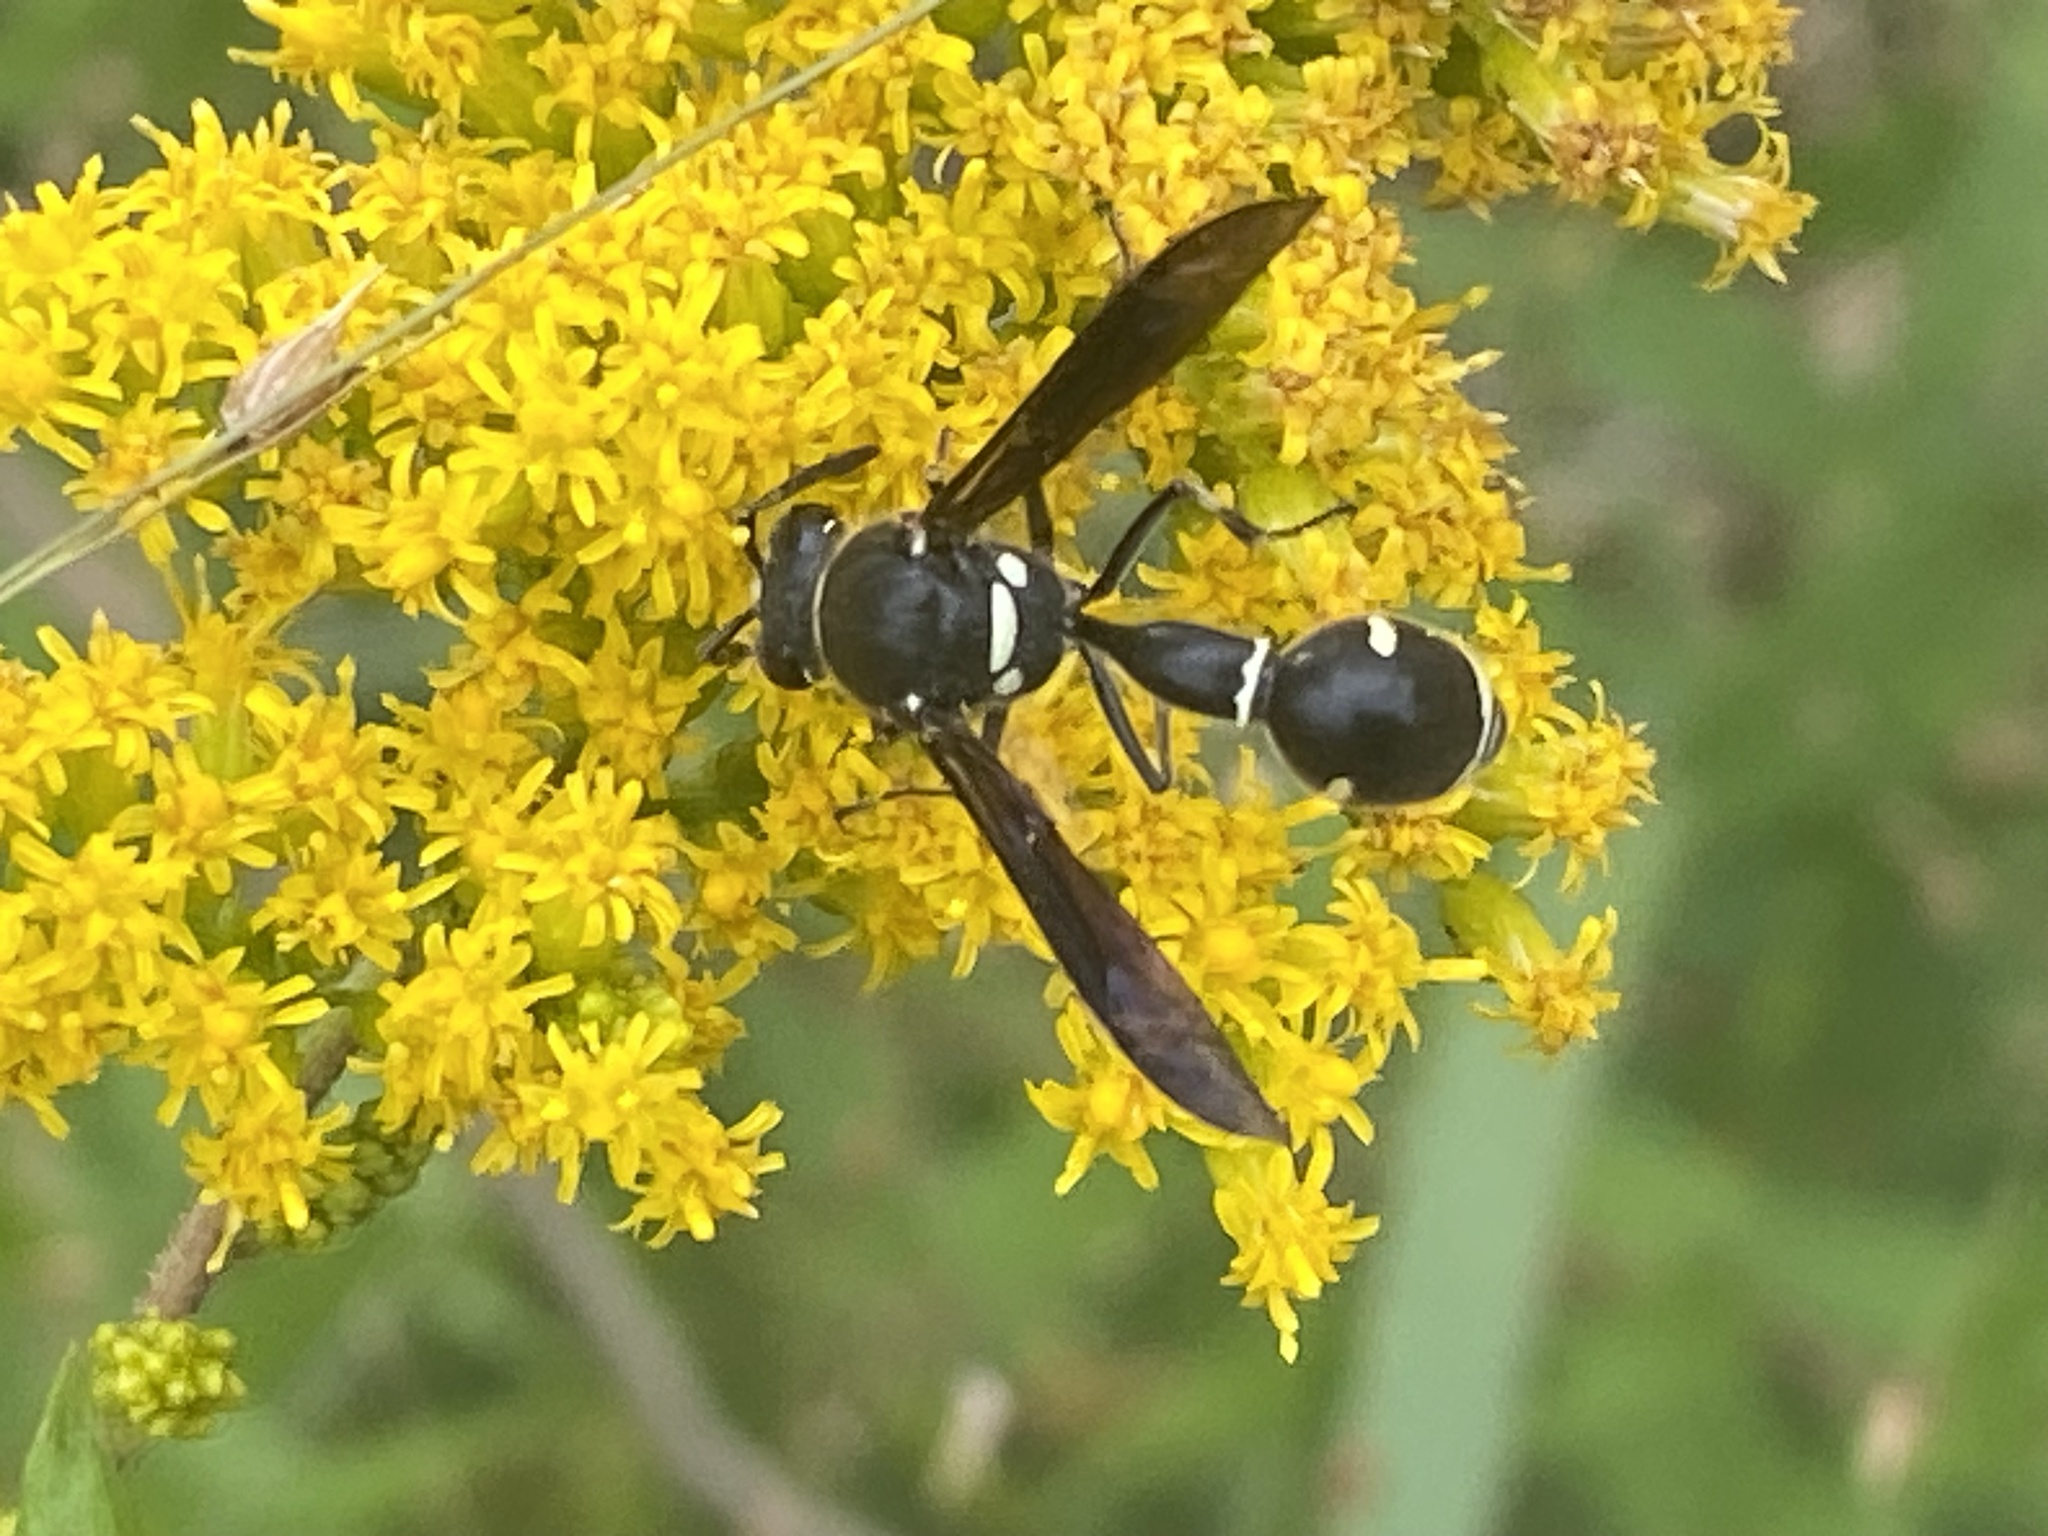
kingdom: Animalia
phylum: Arthropoda
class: Insecta
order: Hymenoptera
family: Vespidae
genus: Eumenes
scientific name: Eumenes fraternus
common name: Fraternal potter wasp
